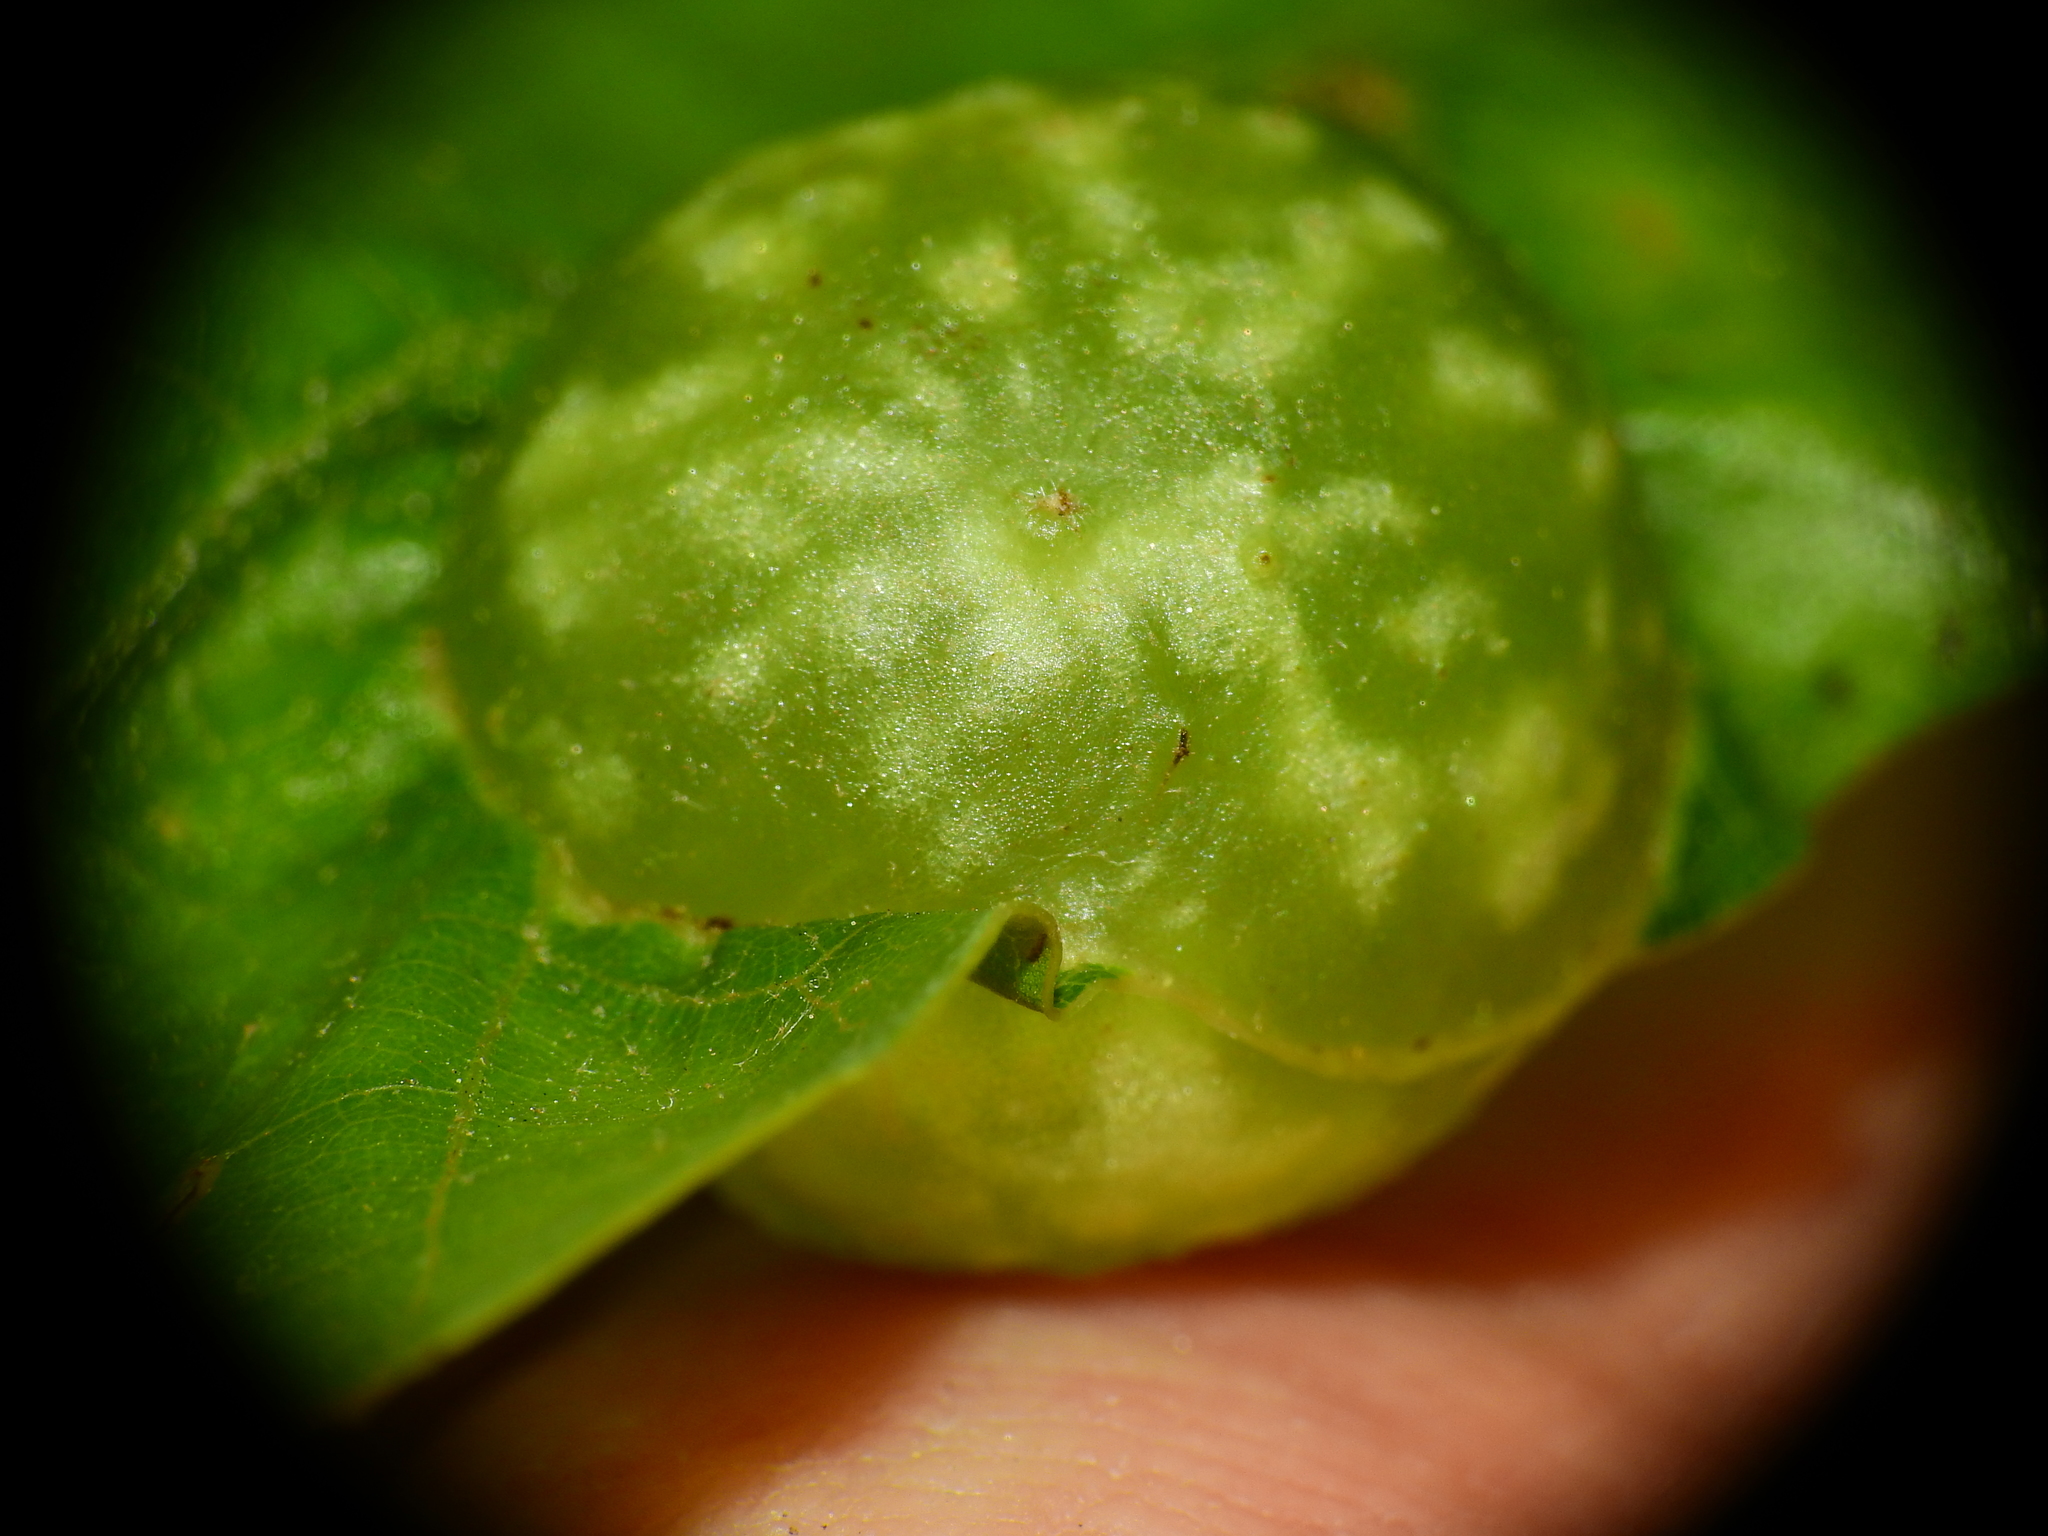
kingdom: Animalia
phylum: Arthropoda
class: Insecta
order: Hymenoptera
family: Cynipidae
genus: Dryocosmus
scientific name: Dryocosmus quercuspalustris
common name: Succulent oak gall wasp
